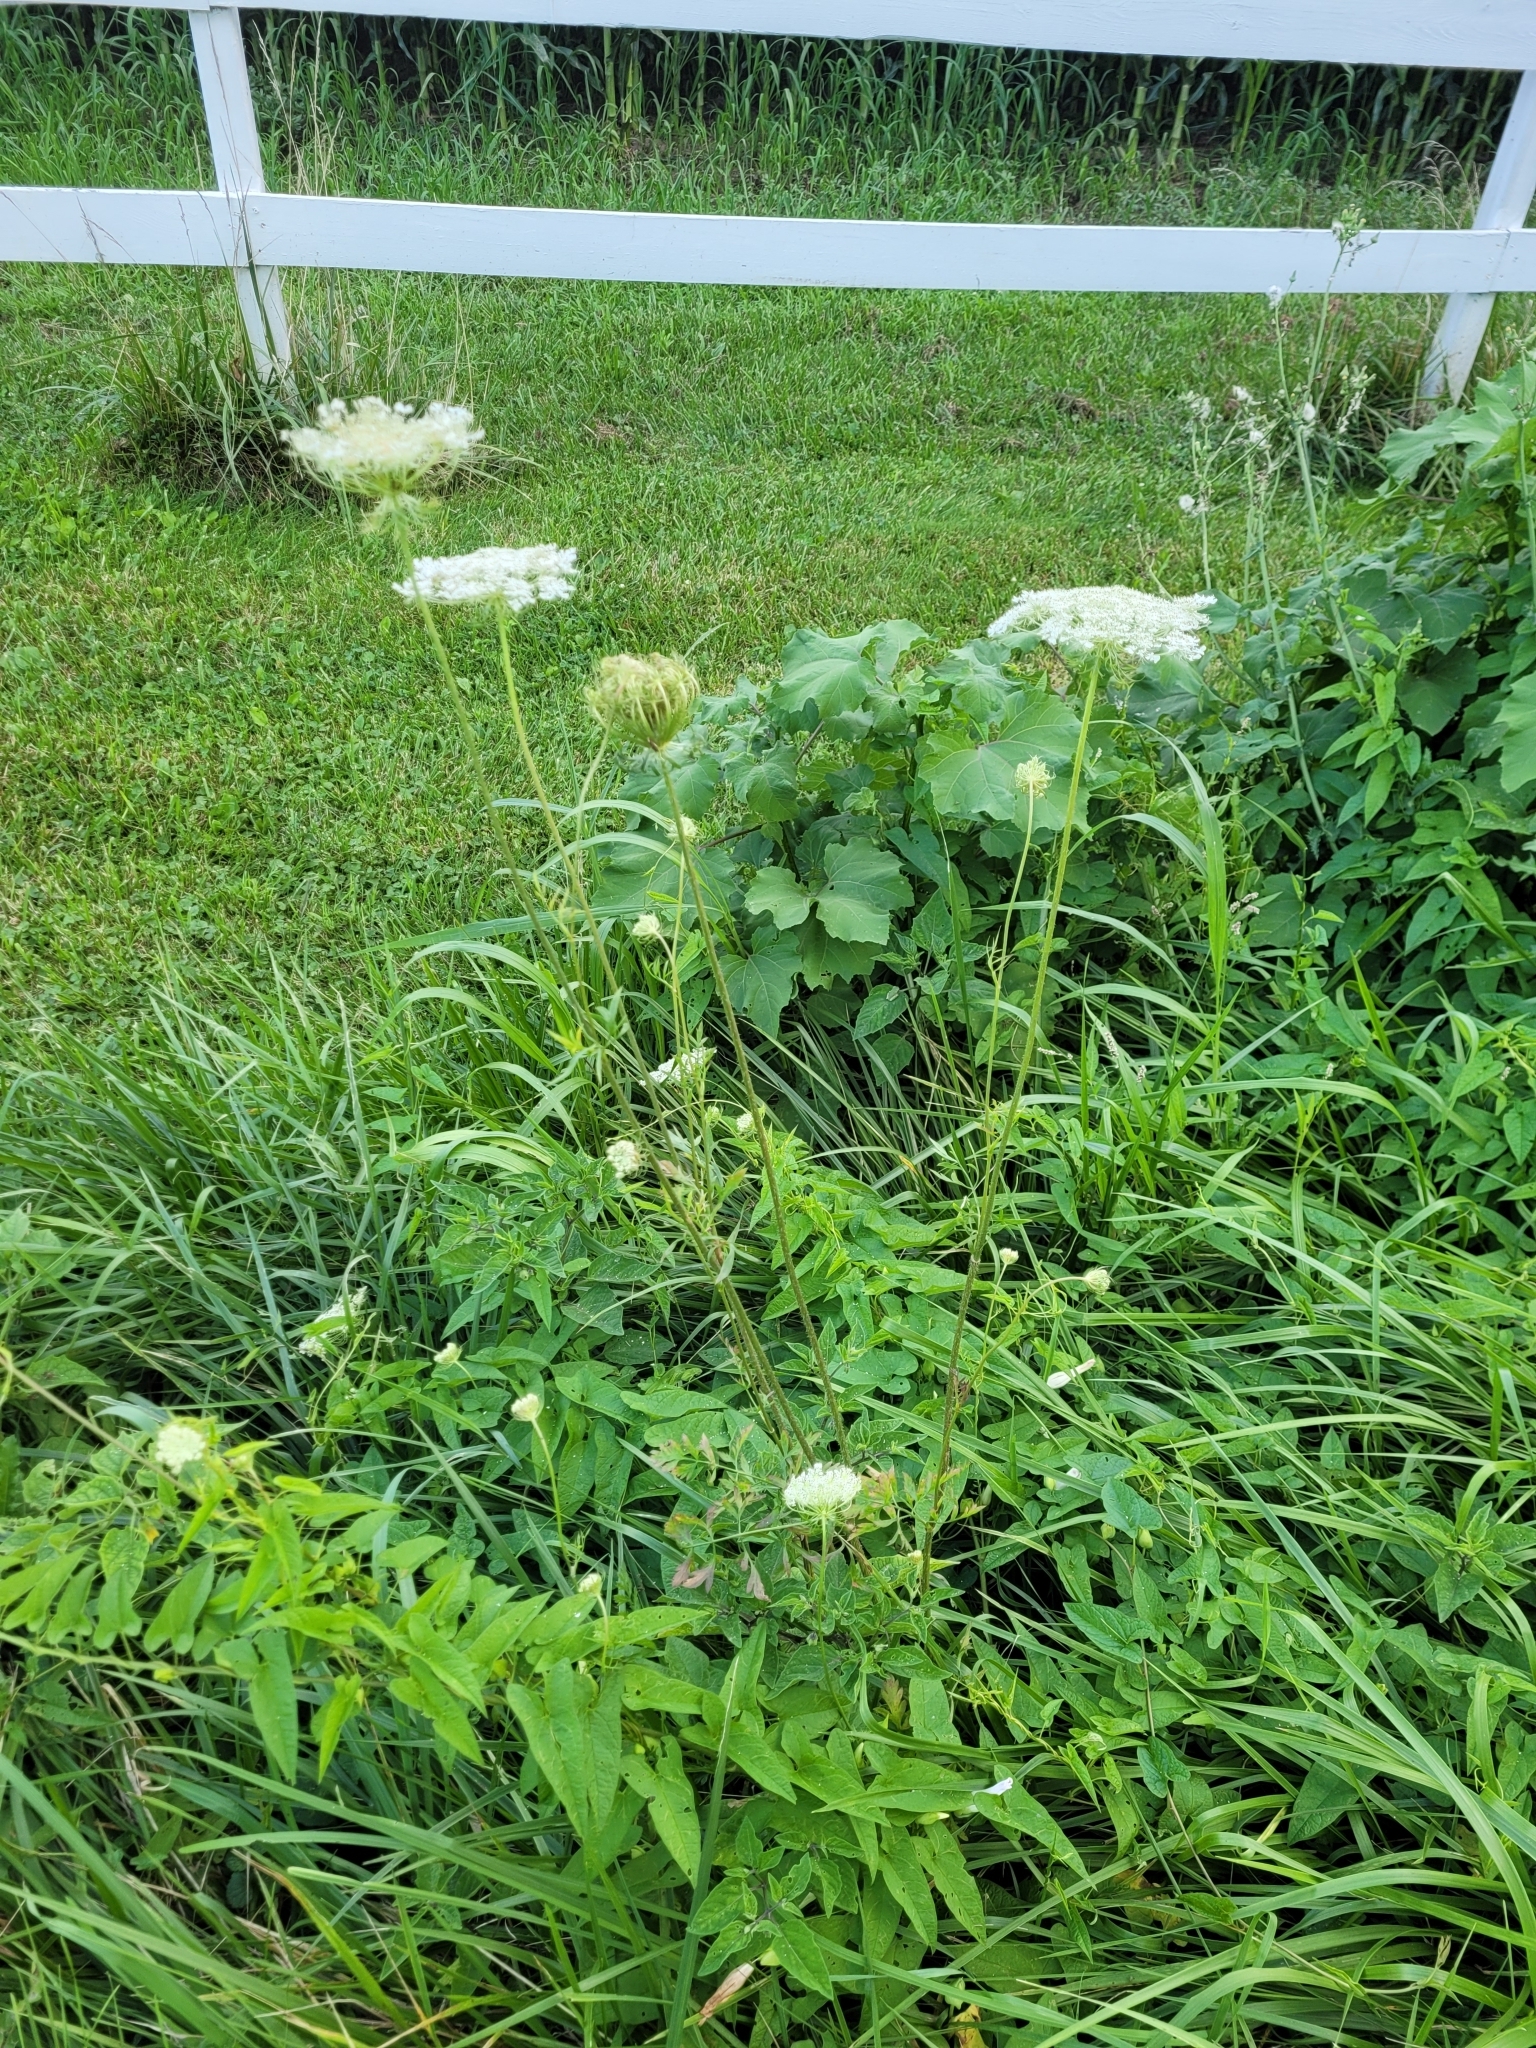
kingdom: Plantae
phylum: Tracheophyta
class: Magnoliopsida
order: Apiales
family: Apiaceae
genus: Daucus
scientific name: Daucus carota
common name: Wild carrot
